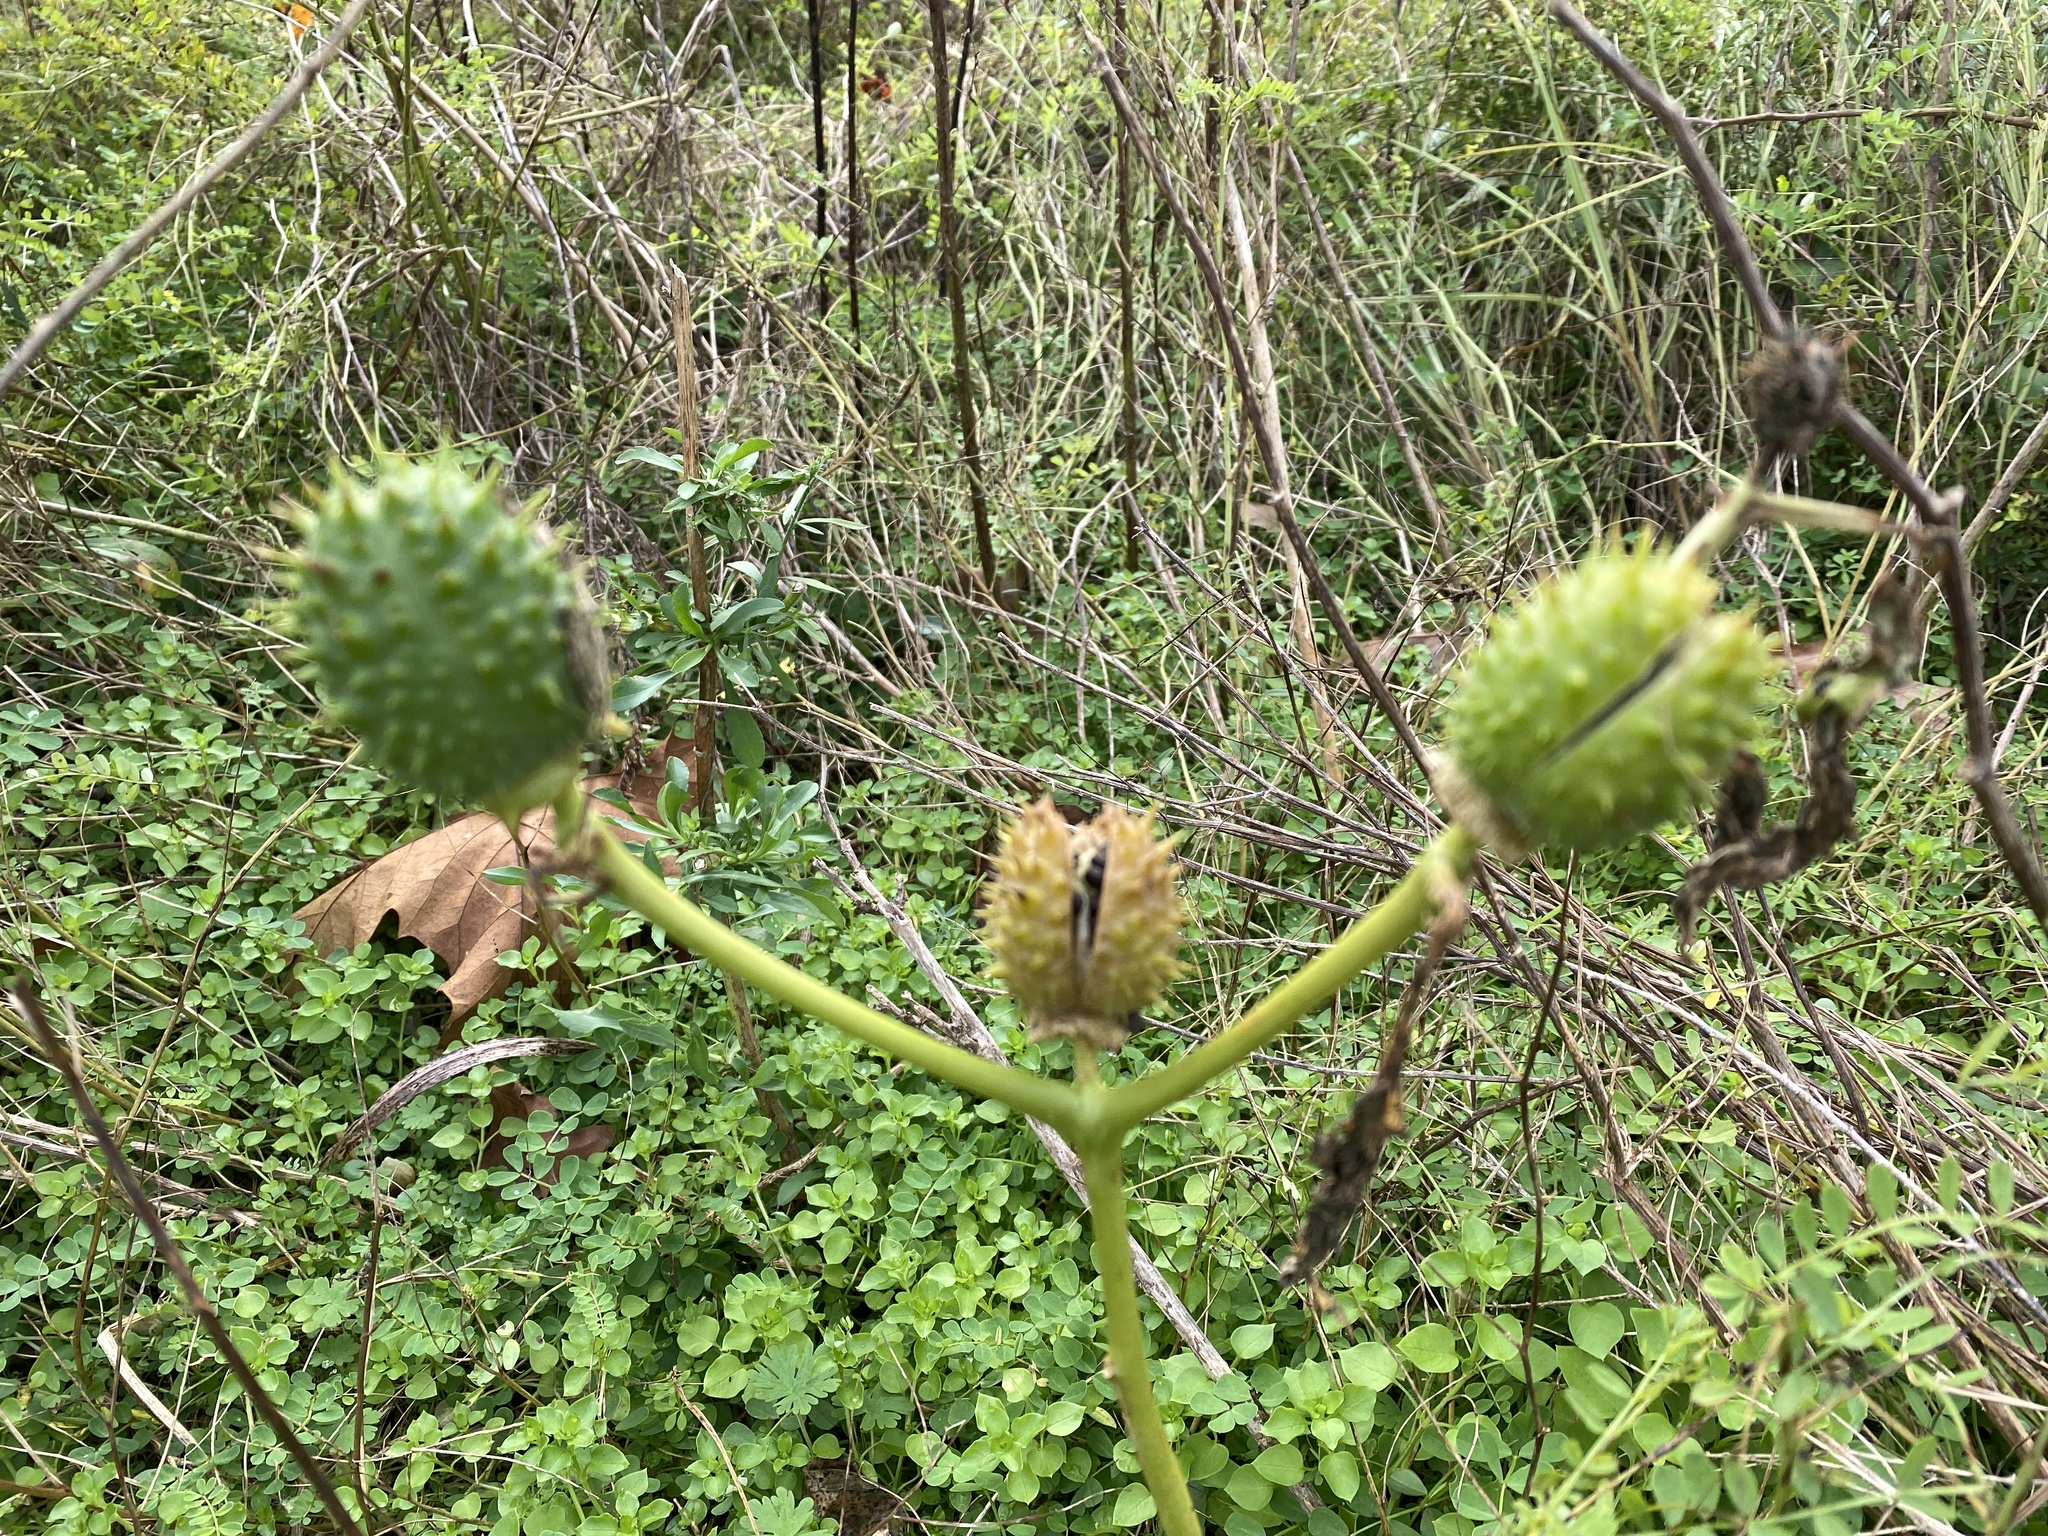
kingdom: Plantae
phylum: Tracheophyta
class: Magnoliopsida
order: Solanales
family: Solanaceae
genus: Datura
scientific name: Datura stramonium
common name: Thorn-apple
